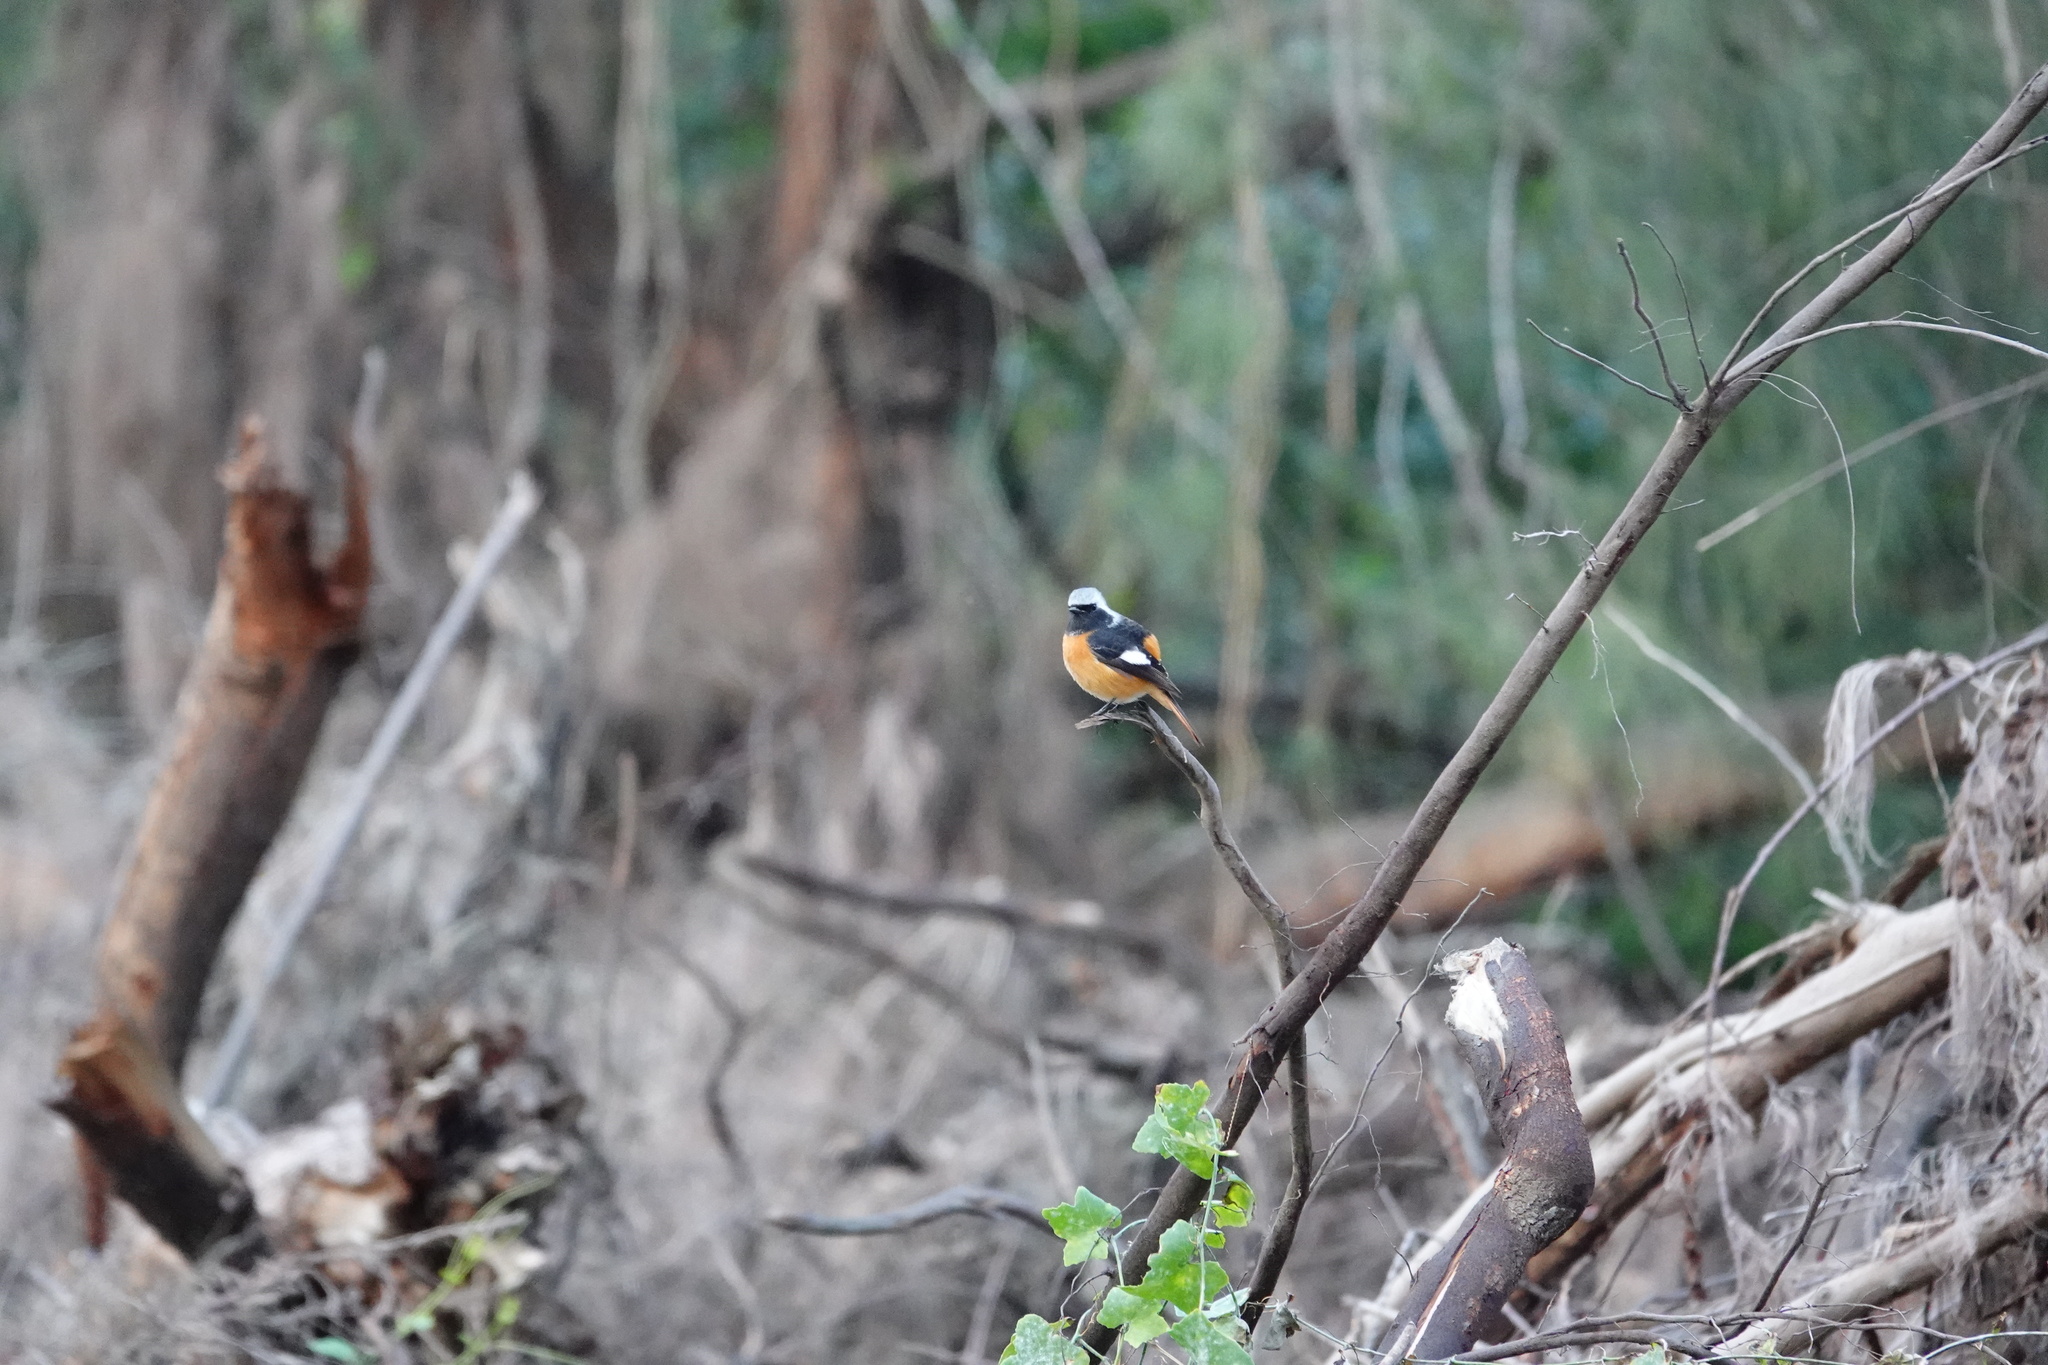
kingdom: Animalia
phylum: Chordata
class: Aves
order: Passeriformes
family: Muscicapidae
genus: Phoenicurus
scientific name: Phoenicurus auroreus
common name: Daurian redstart
